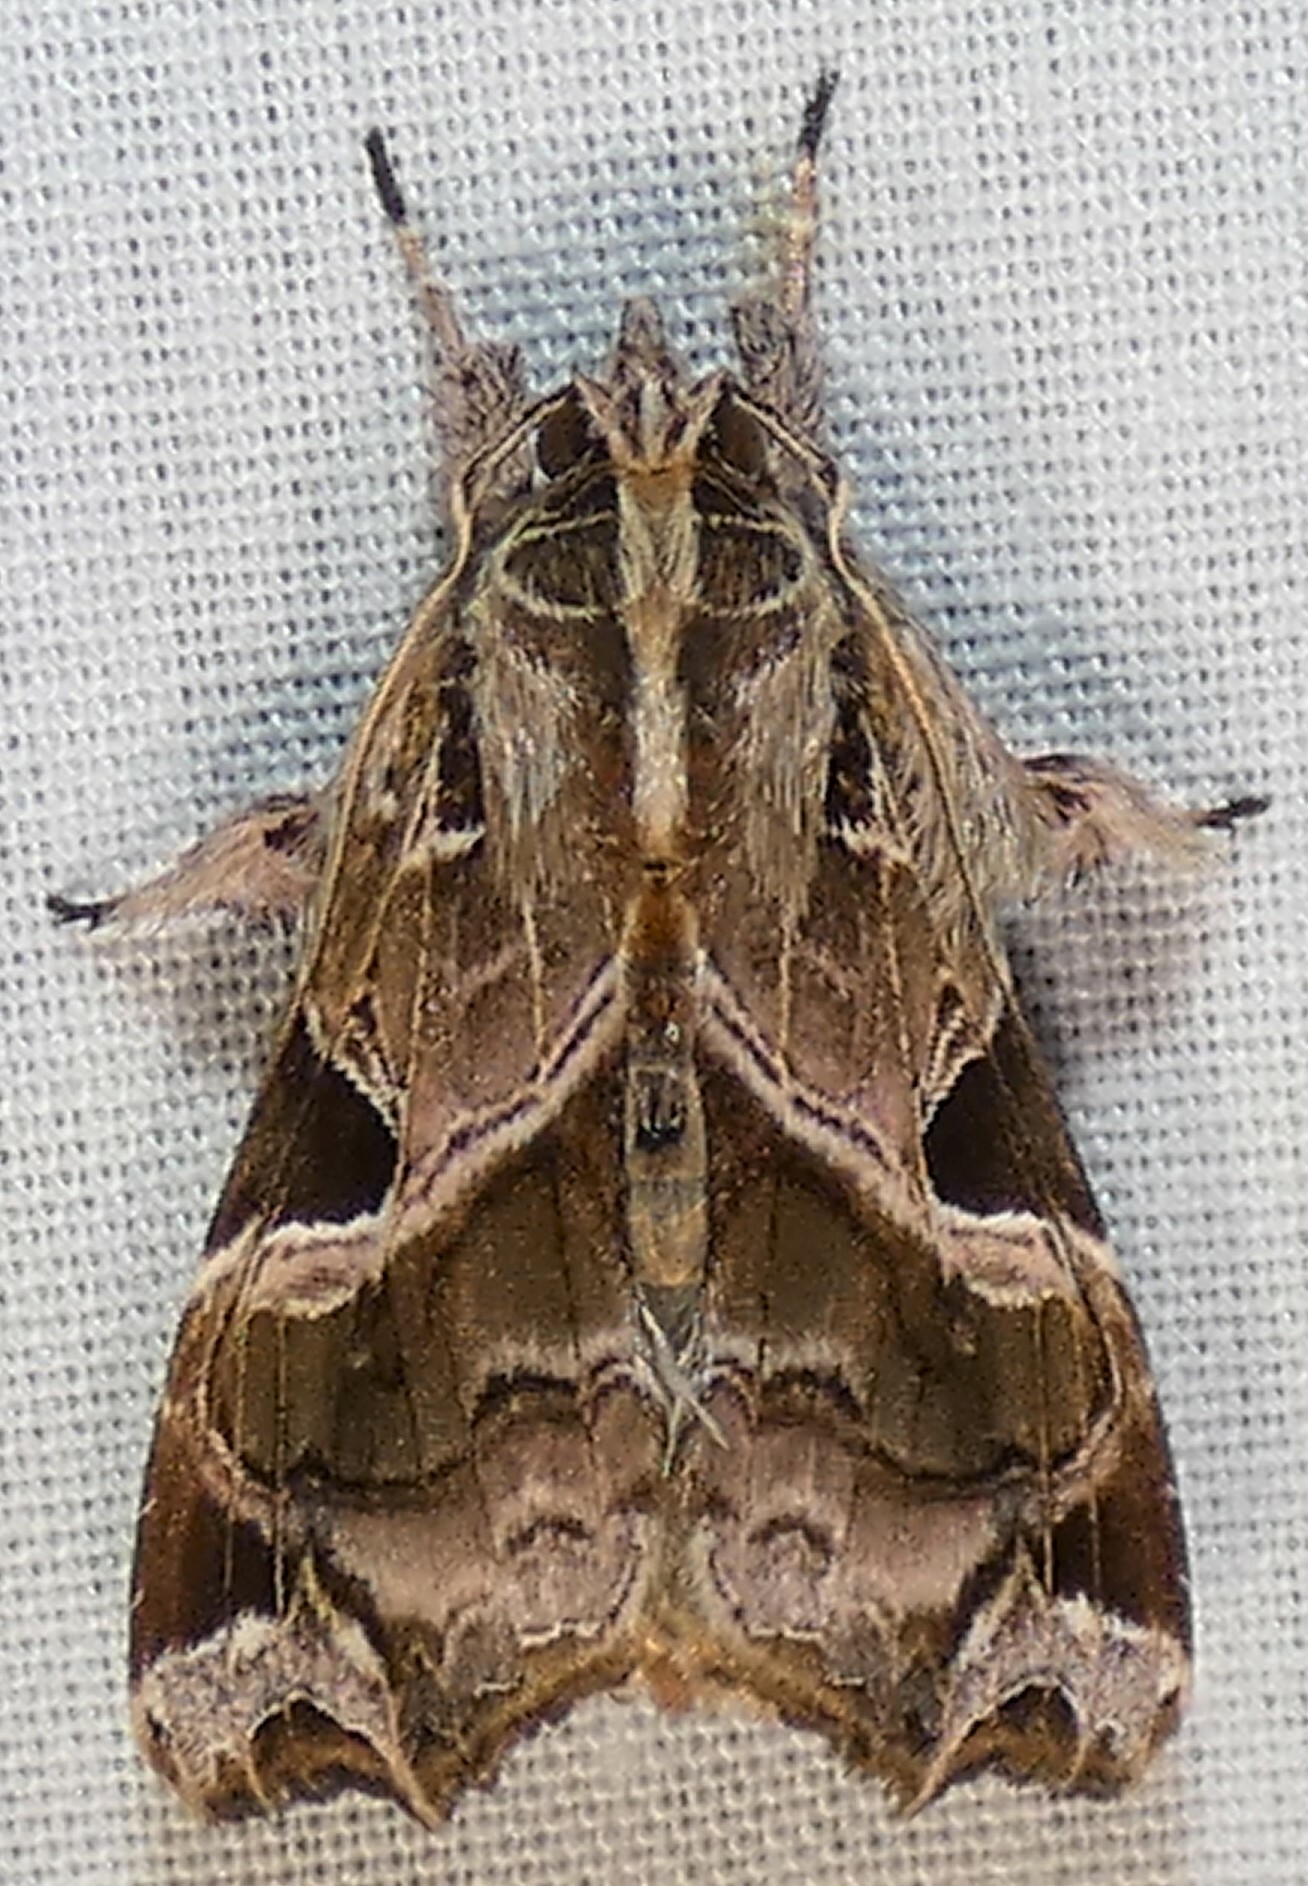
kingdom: Animalia
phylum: Arthropoda
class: Insecta
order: Lepidoptera
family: Noctuidae
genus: Callopistria
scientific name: Callopistria floridensis
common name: Florida fern moth
